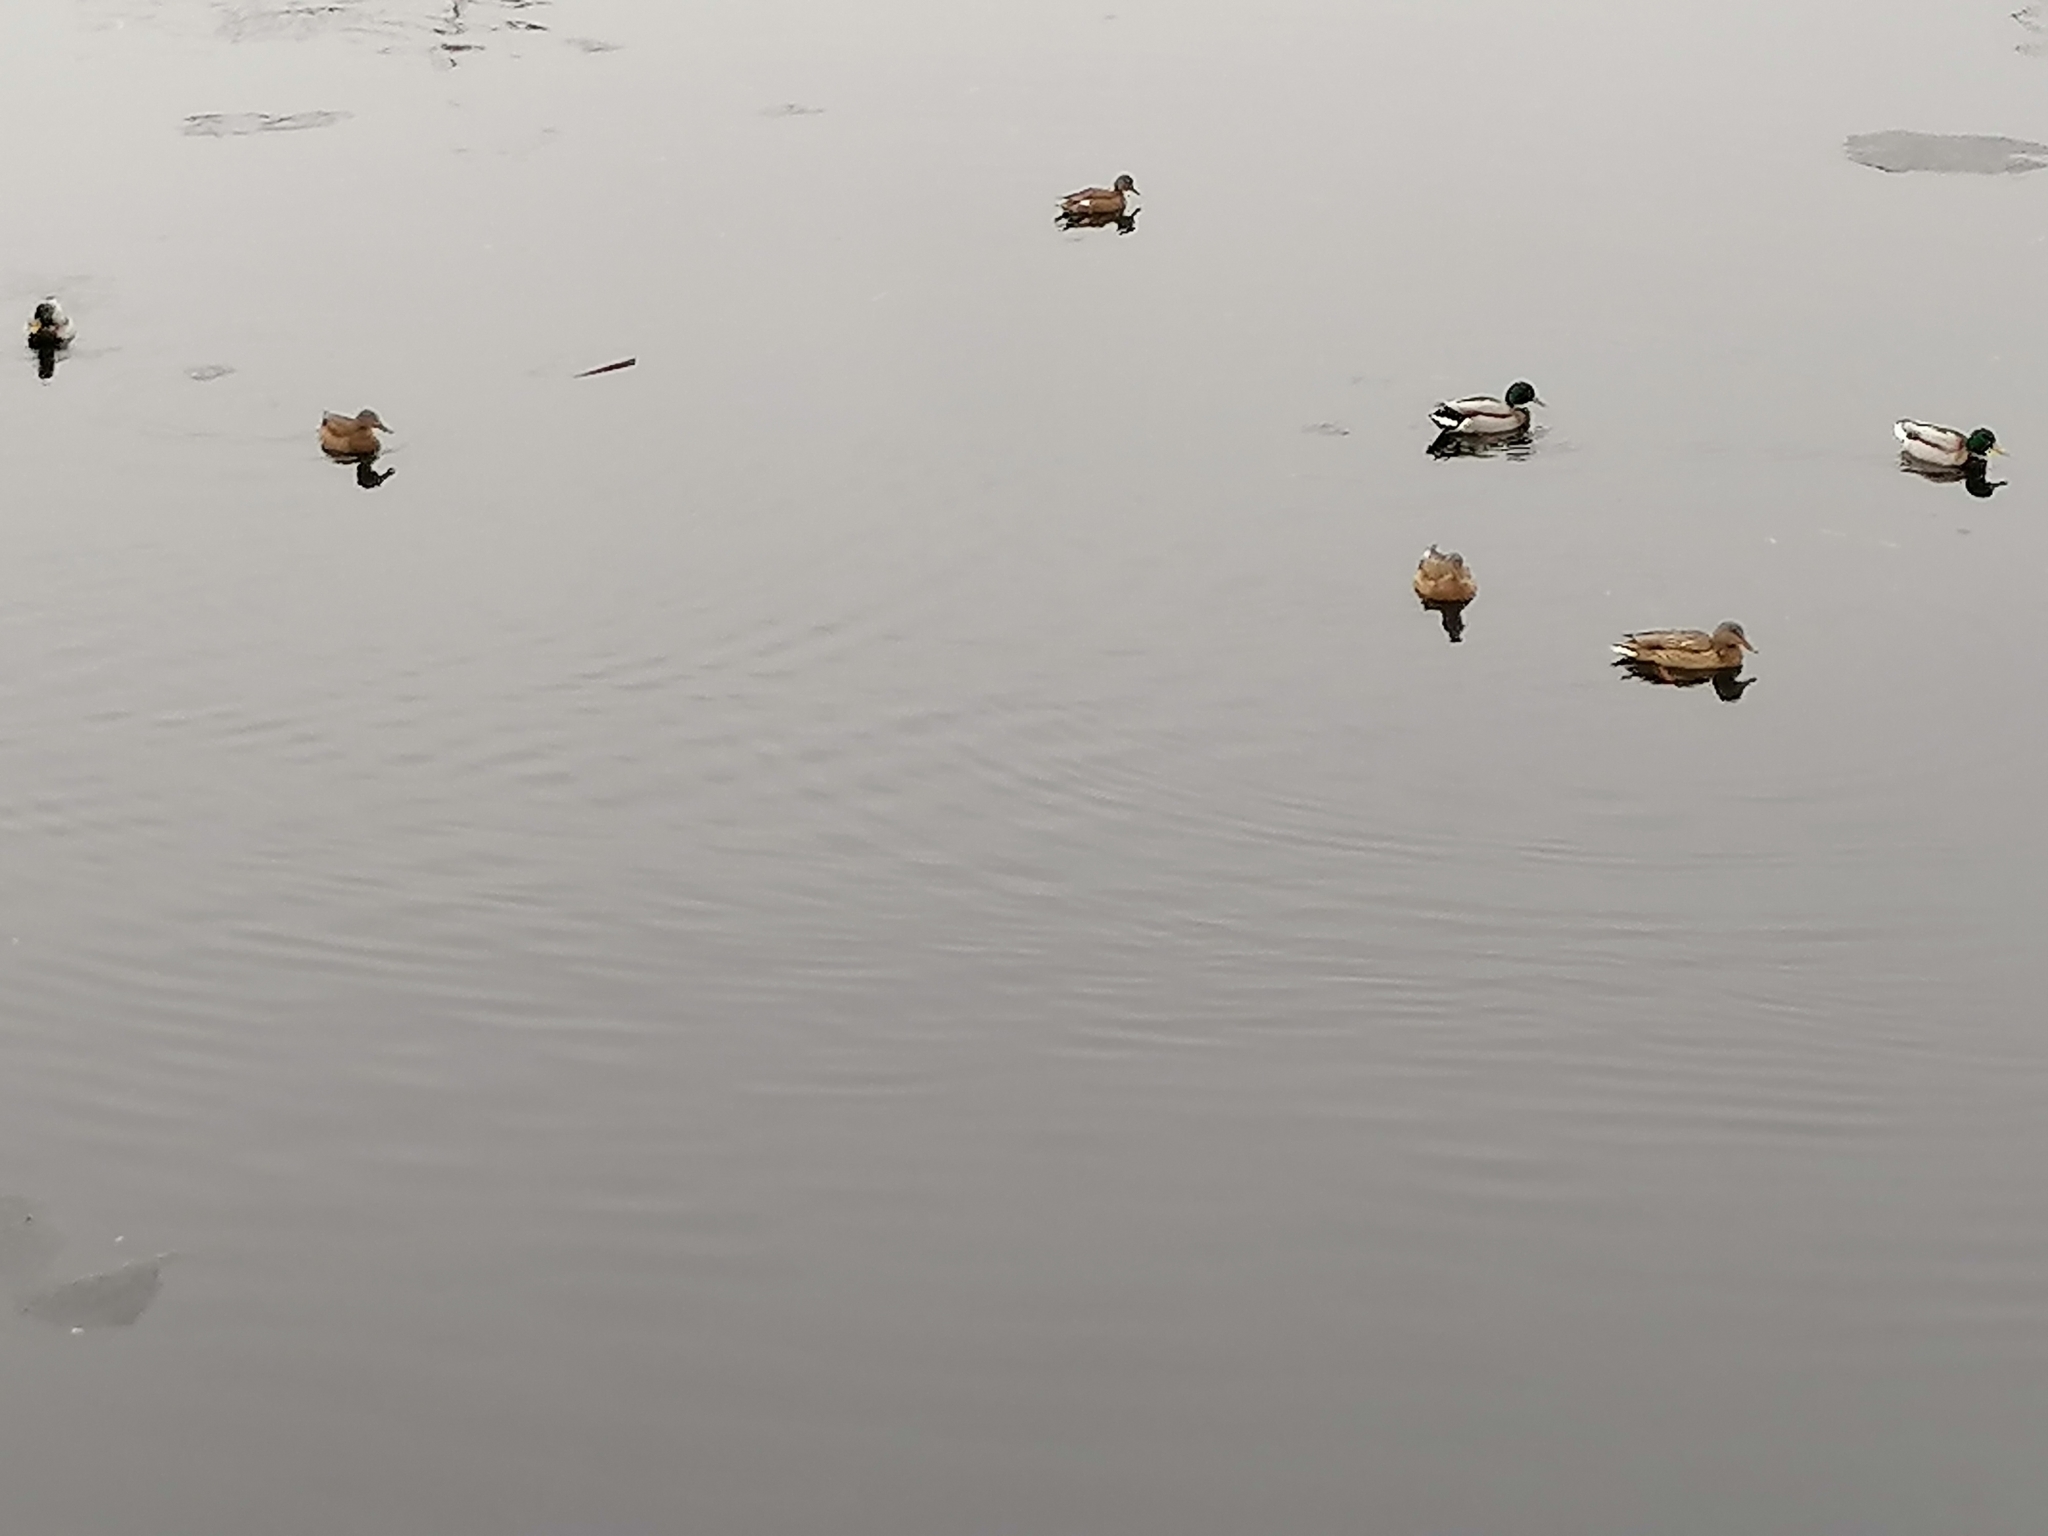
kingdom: Animalia
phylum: Chordata
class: Aves
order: Anseriformes
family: Anatidae
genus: Anas
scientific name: Anas platyrhynchos
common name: Mallard
